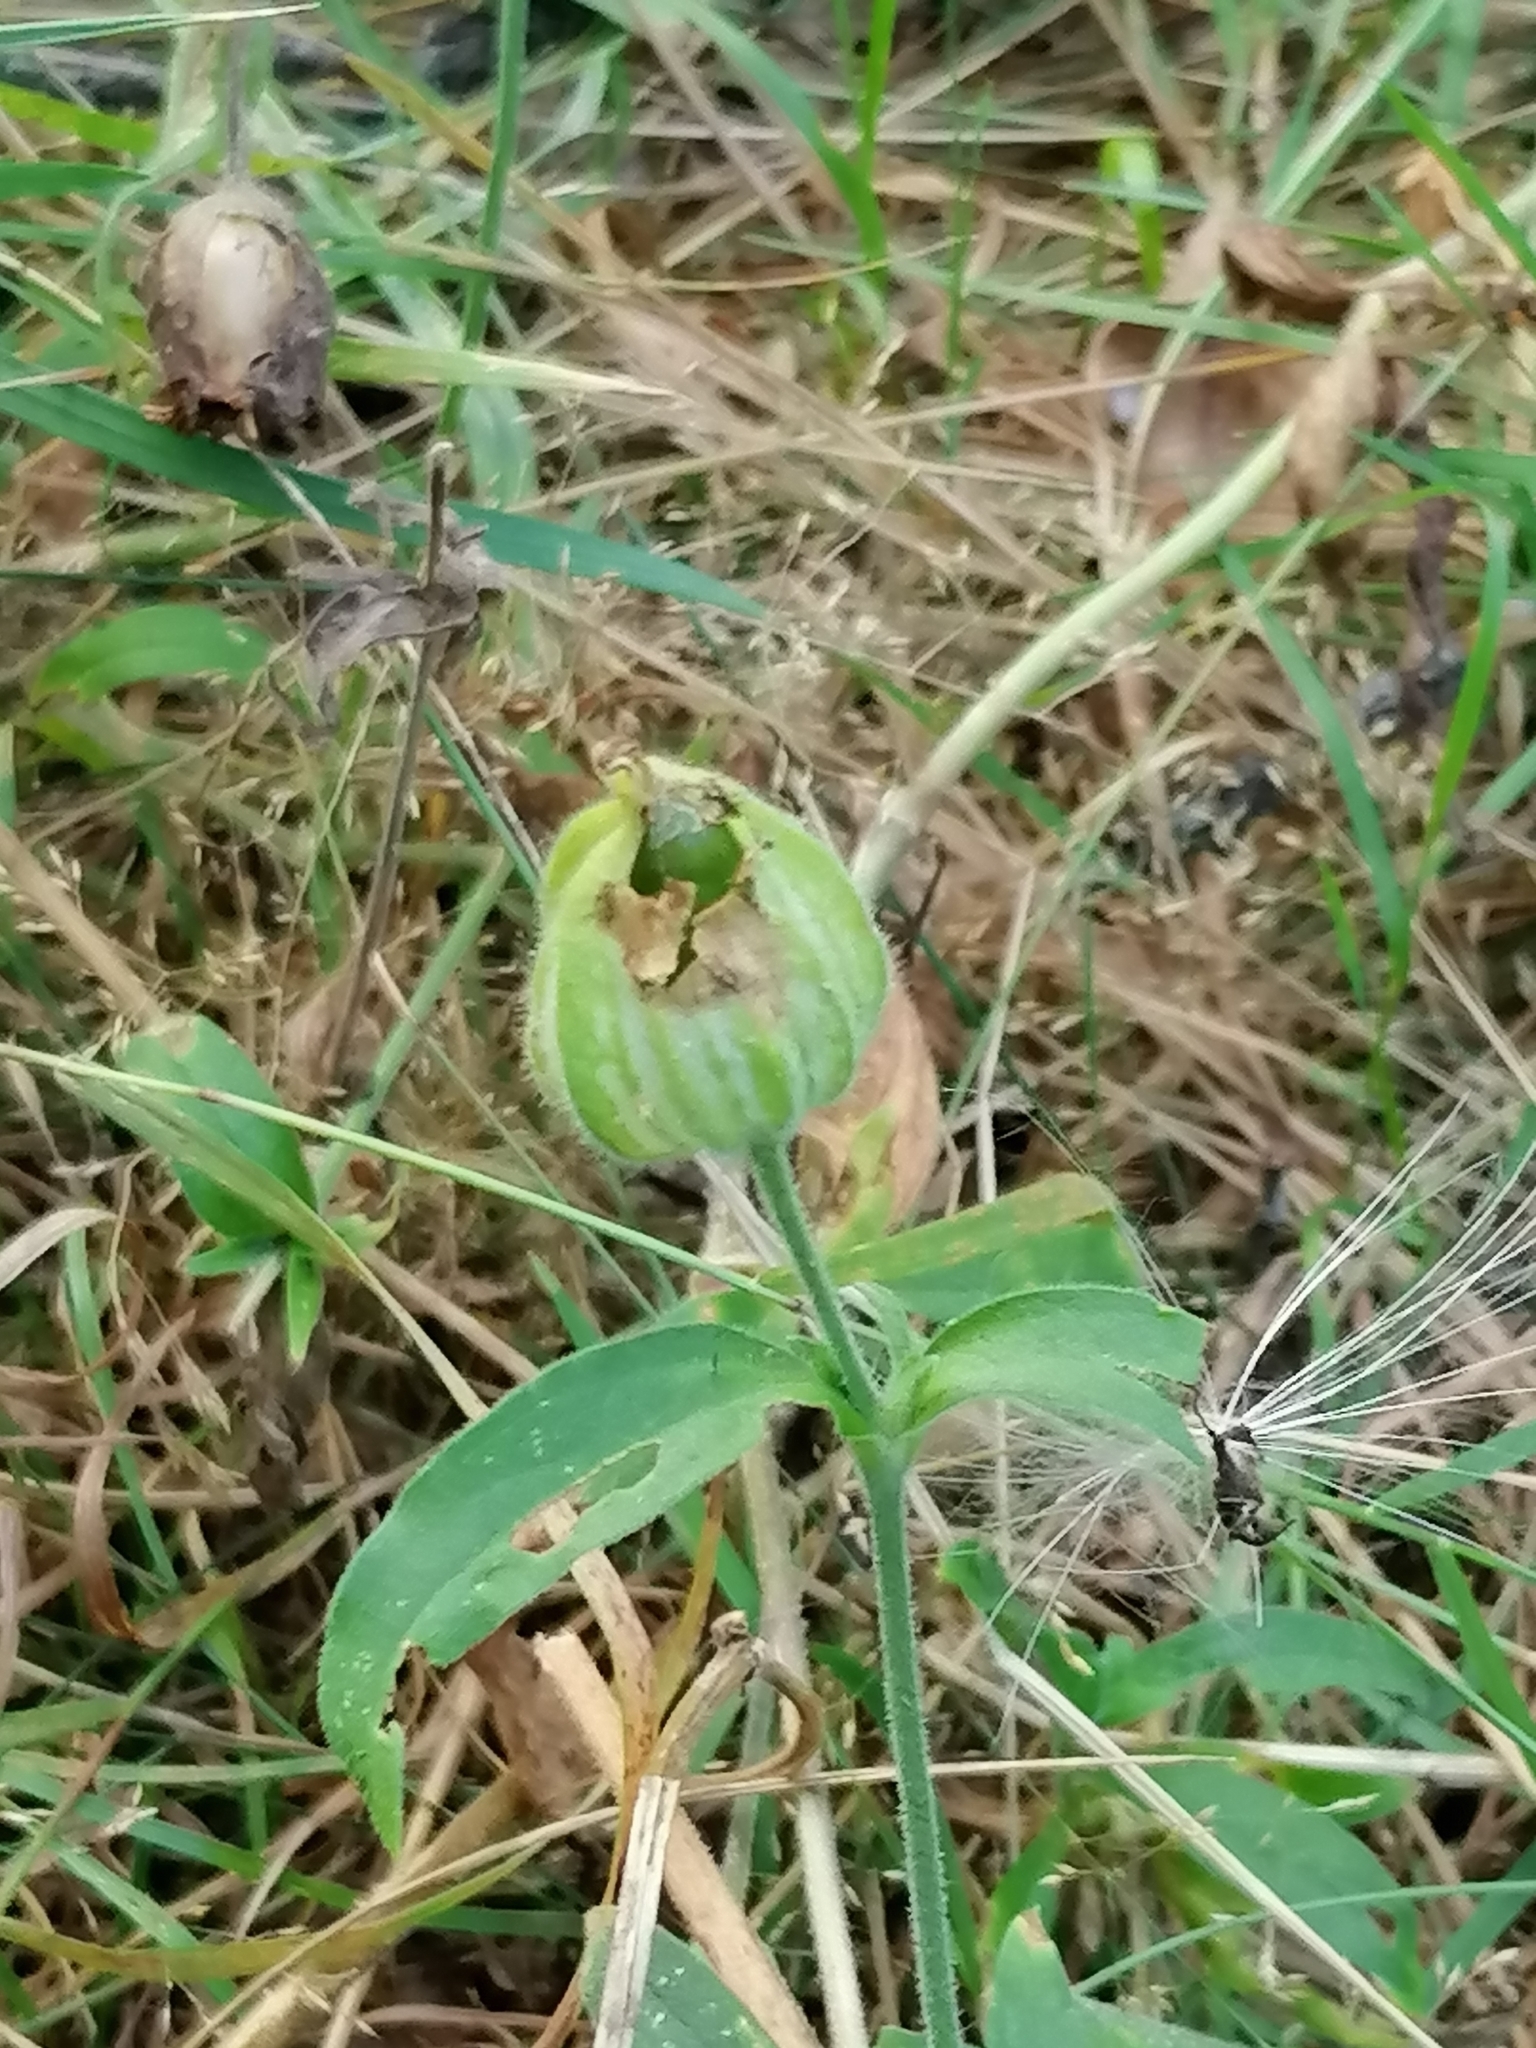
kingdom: Plantae
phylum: Tracheophyta
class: Magnoliopsida
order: Caryophyllales
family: Caryophyllaceae
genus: Silene
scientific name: Silene latifolia
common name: White campion
